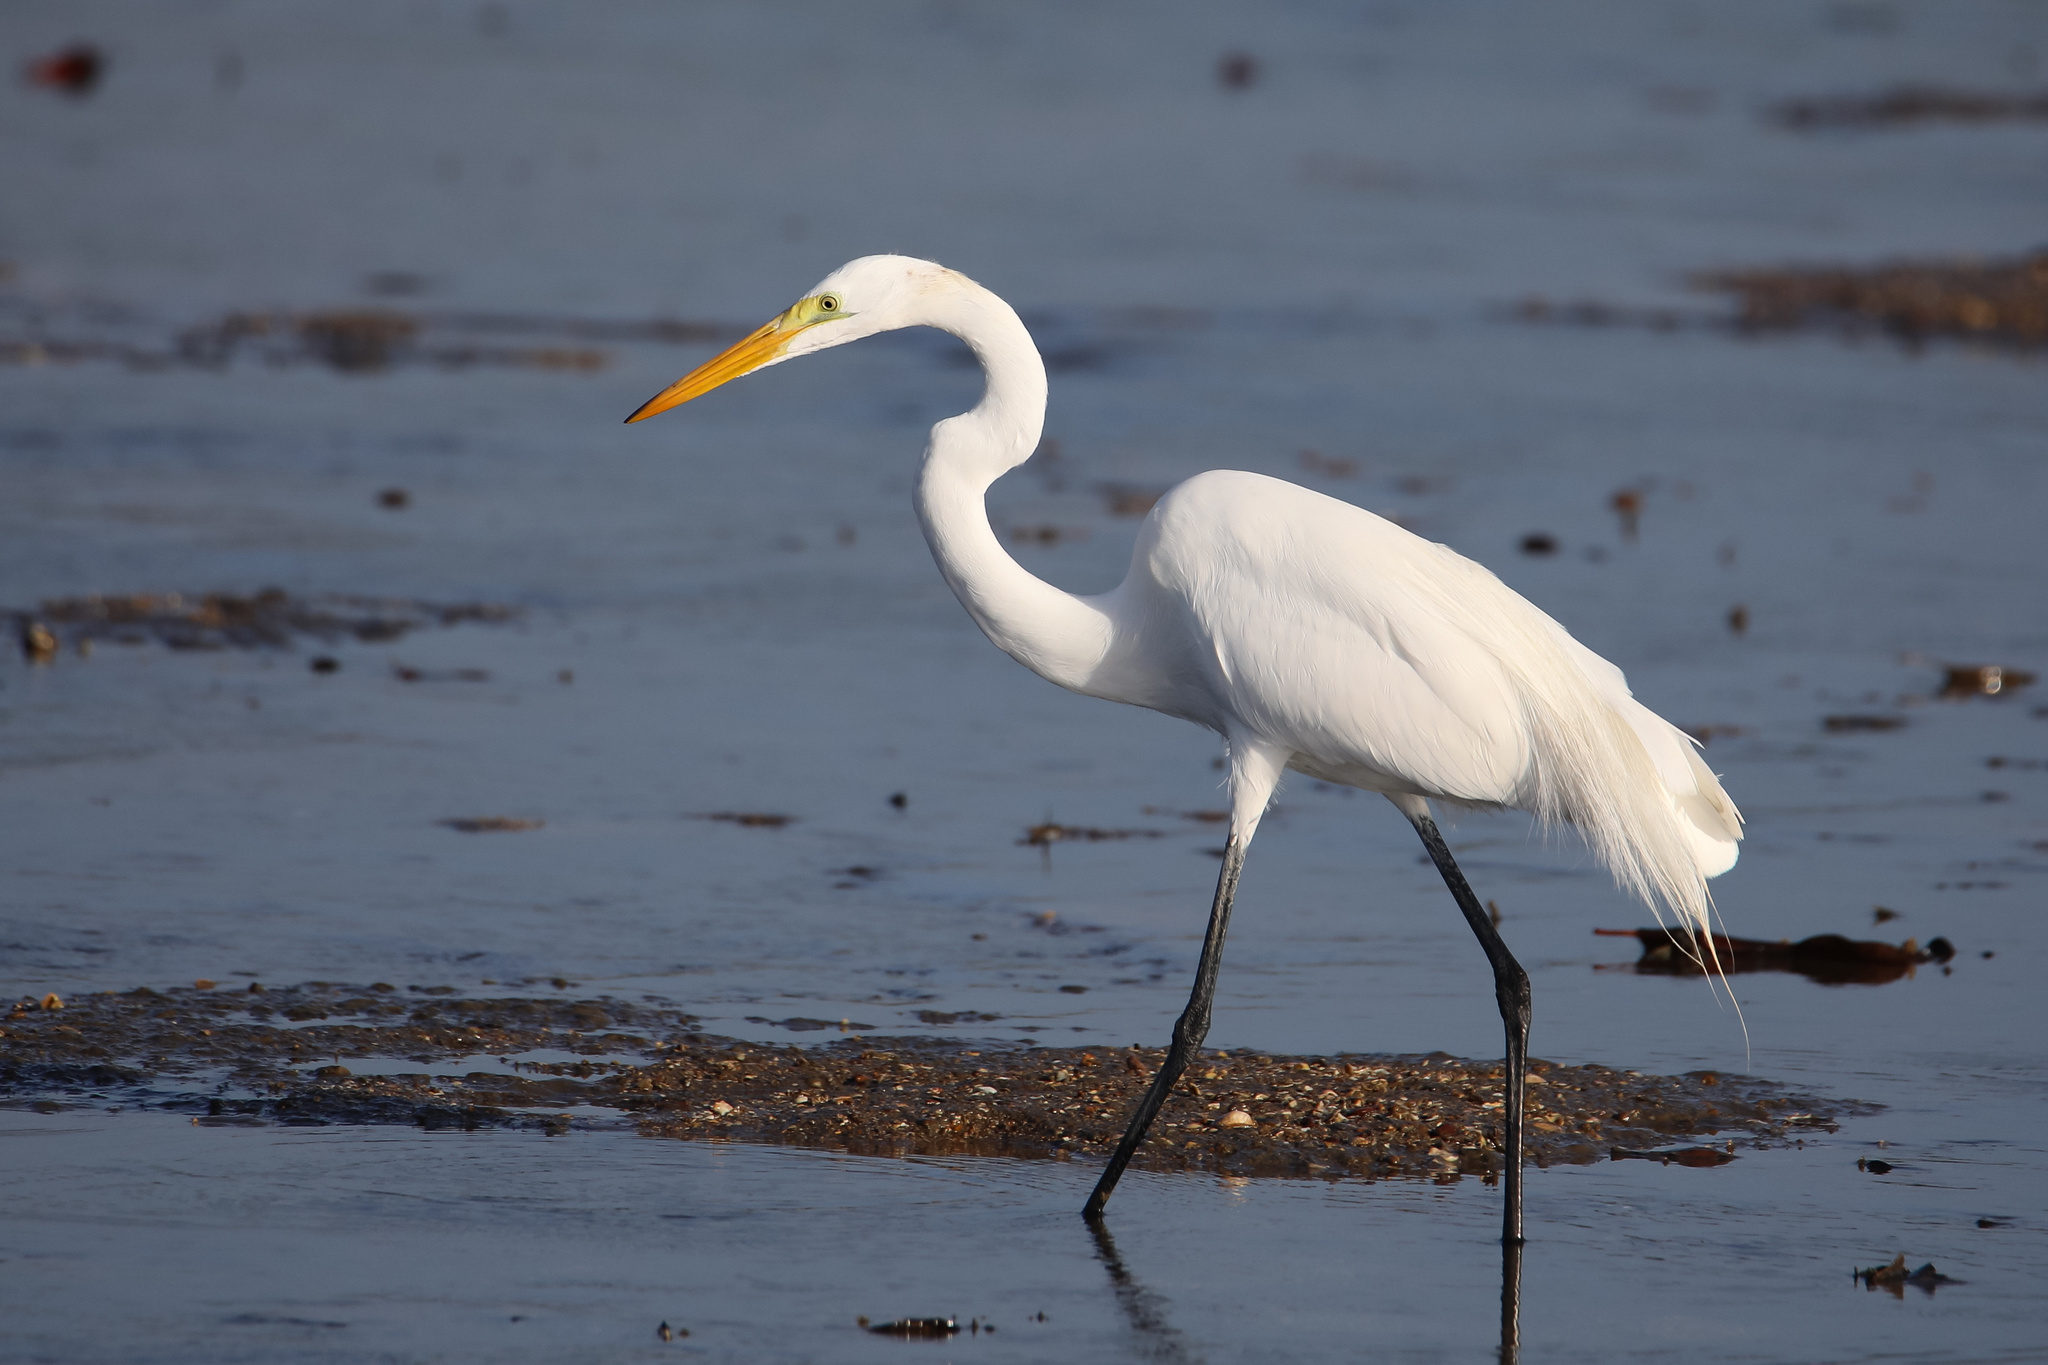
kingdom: Animalia
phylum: Chordata
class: Aves
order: Pelecaniformes
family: Ardeidae
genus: Ardea
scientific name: Ardea alba
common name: Great egret
